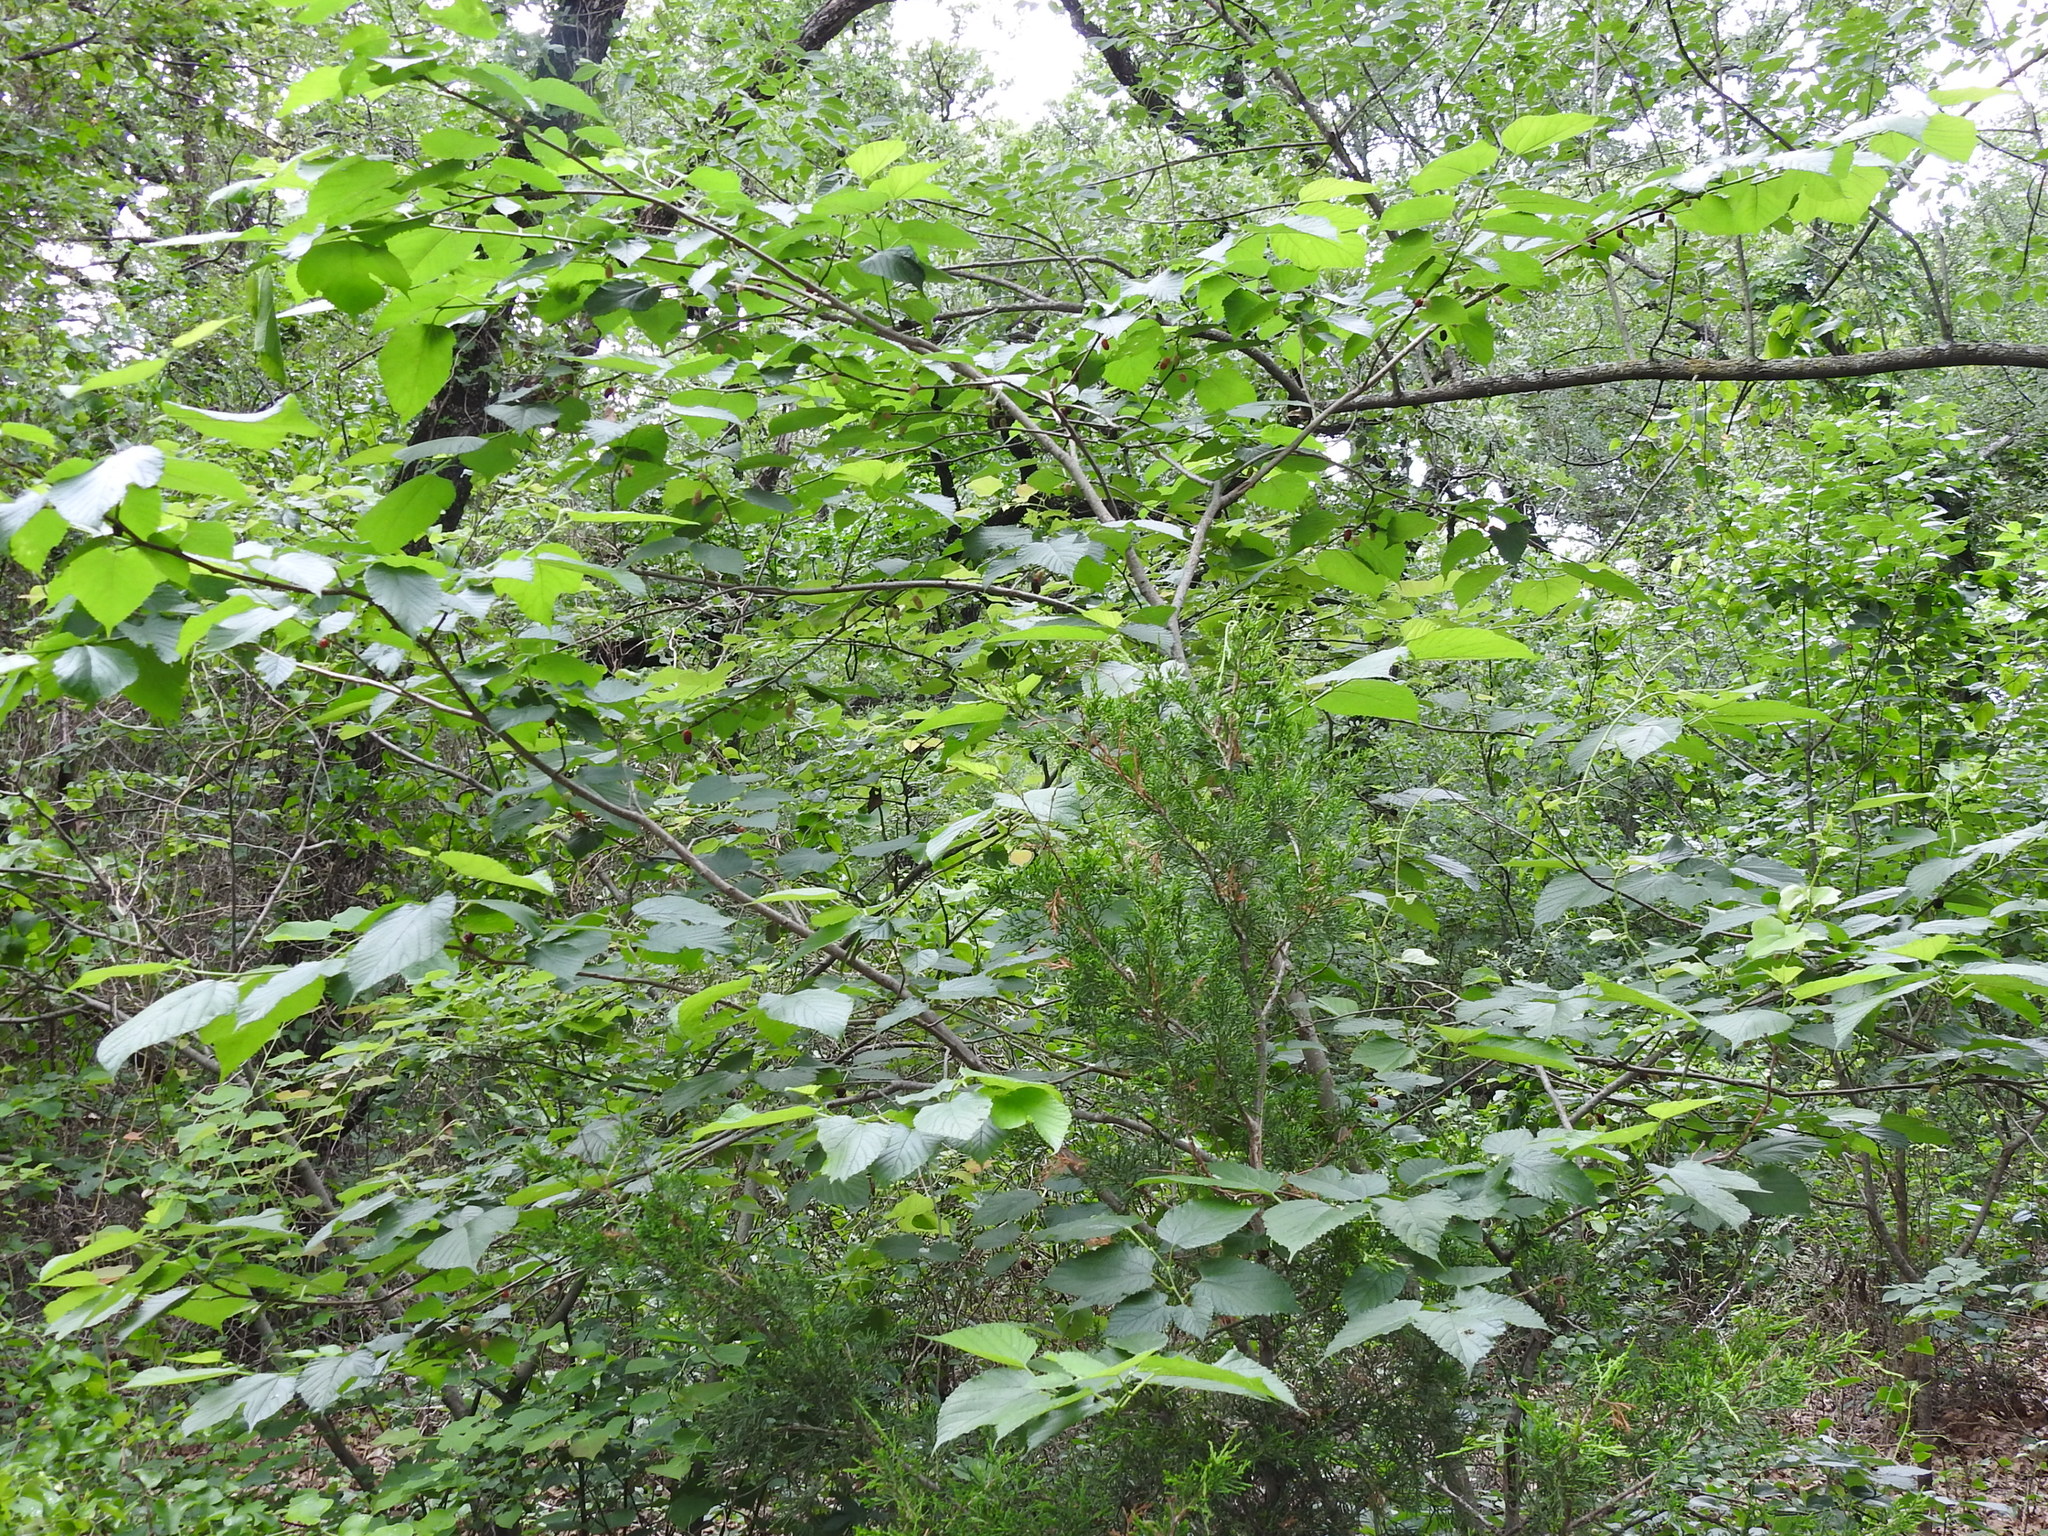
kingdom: Plantae
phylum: Tracheophyta
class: Magnoliopsida
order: Rosales
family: Moraceae
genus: Morus
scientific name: Morus rubra
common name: Red mulberry
